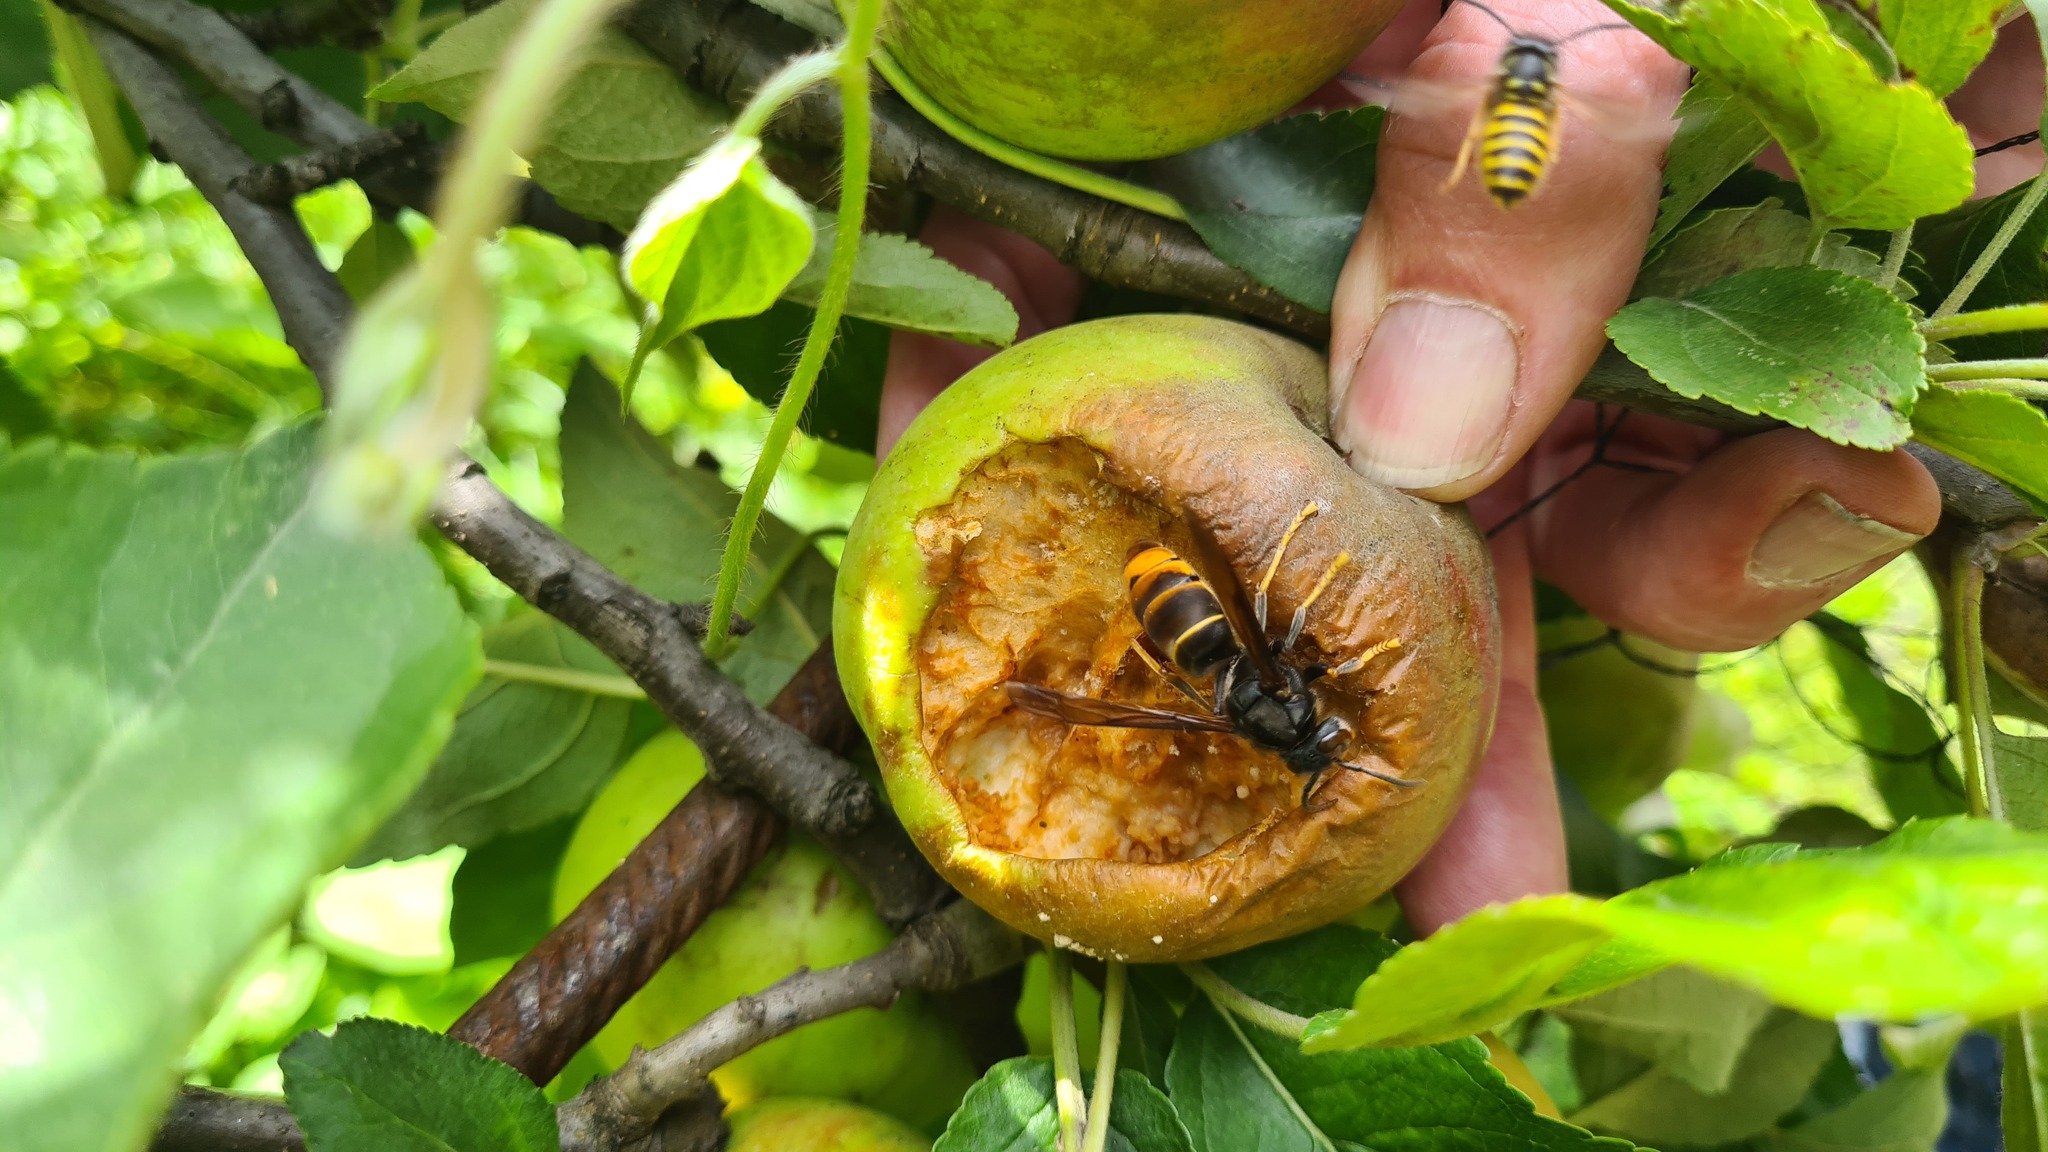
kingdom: Animalia
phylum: Arthropoda
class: Insecta
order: Hymenoptera
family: Vespidae
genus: Vespa
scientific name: Vespa velutina
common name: Asian hornet
